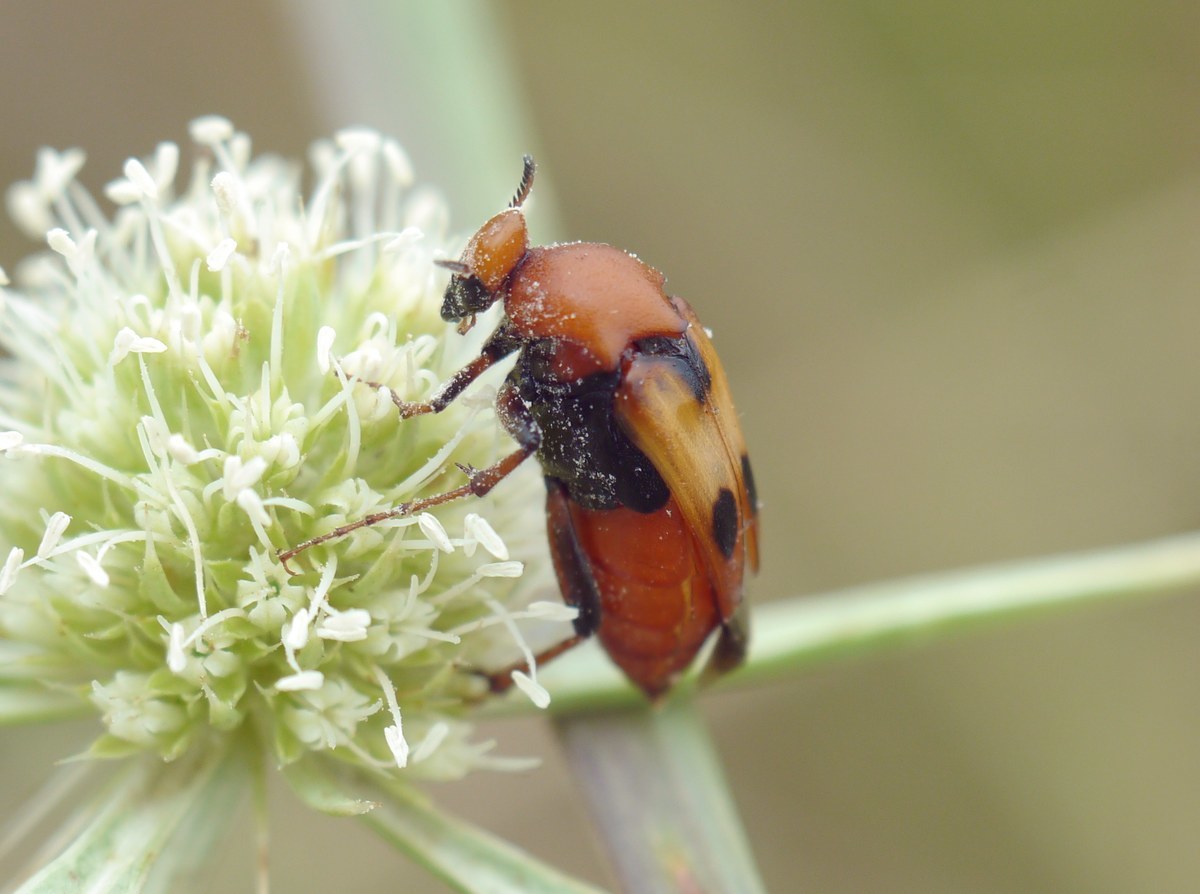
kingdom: Animalia
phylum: Arthropoda
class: Insecta
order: Coleoptera
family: Ripiphoridae
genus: Macrosiagon
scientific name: Macrosiagon bimaculata
